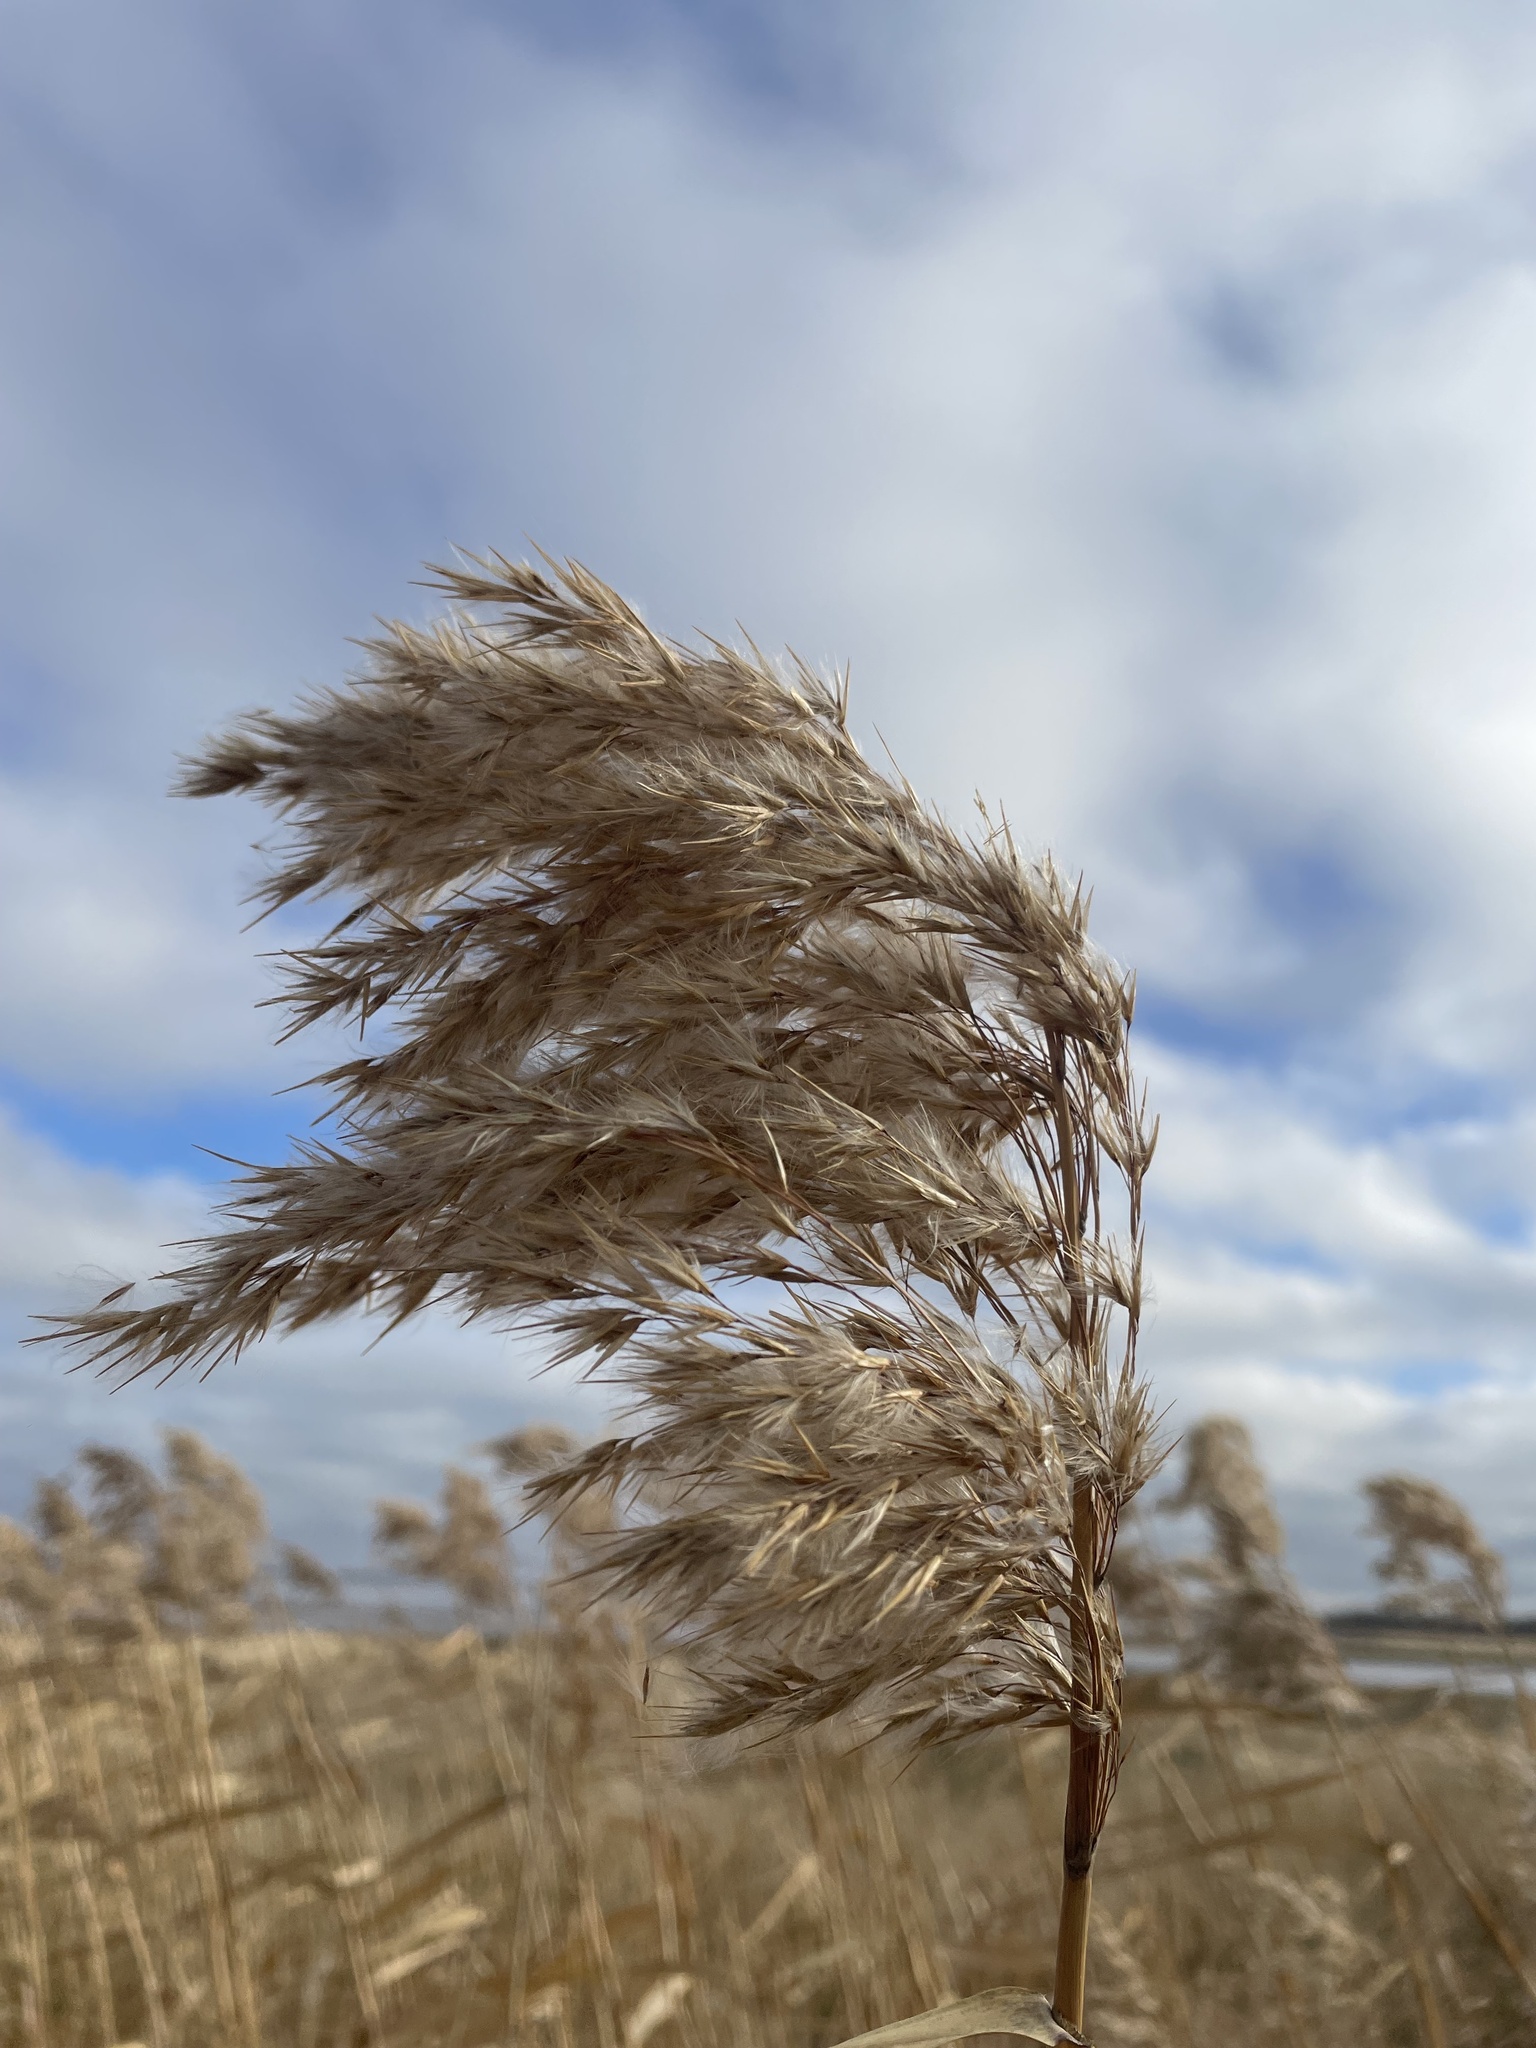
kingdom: Plantae
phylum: Tracheophyta
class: Liliopsida
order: Poales
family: Poaceae
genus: Phragmites
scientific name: Phragmites australis
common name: Common reed
